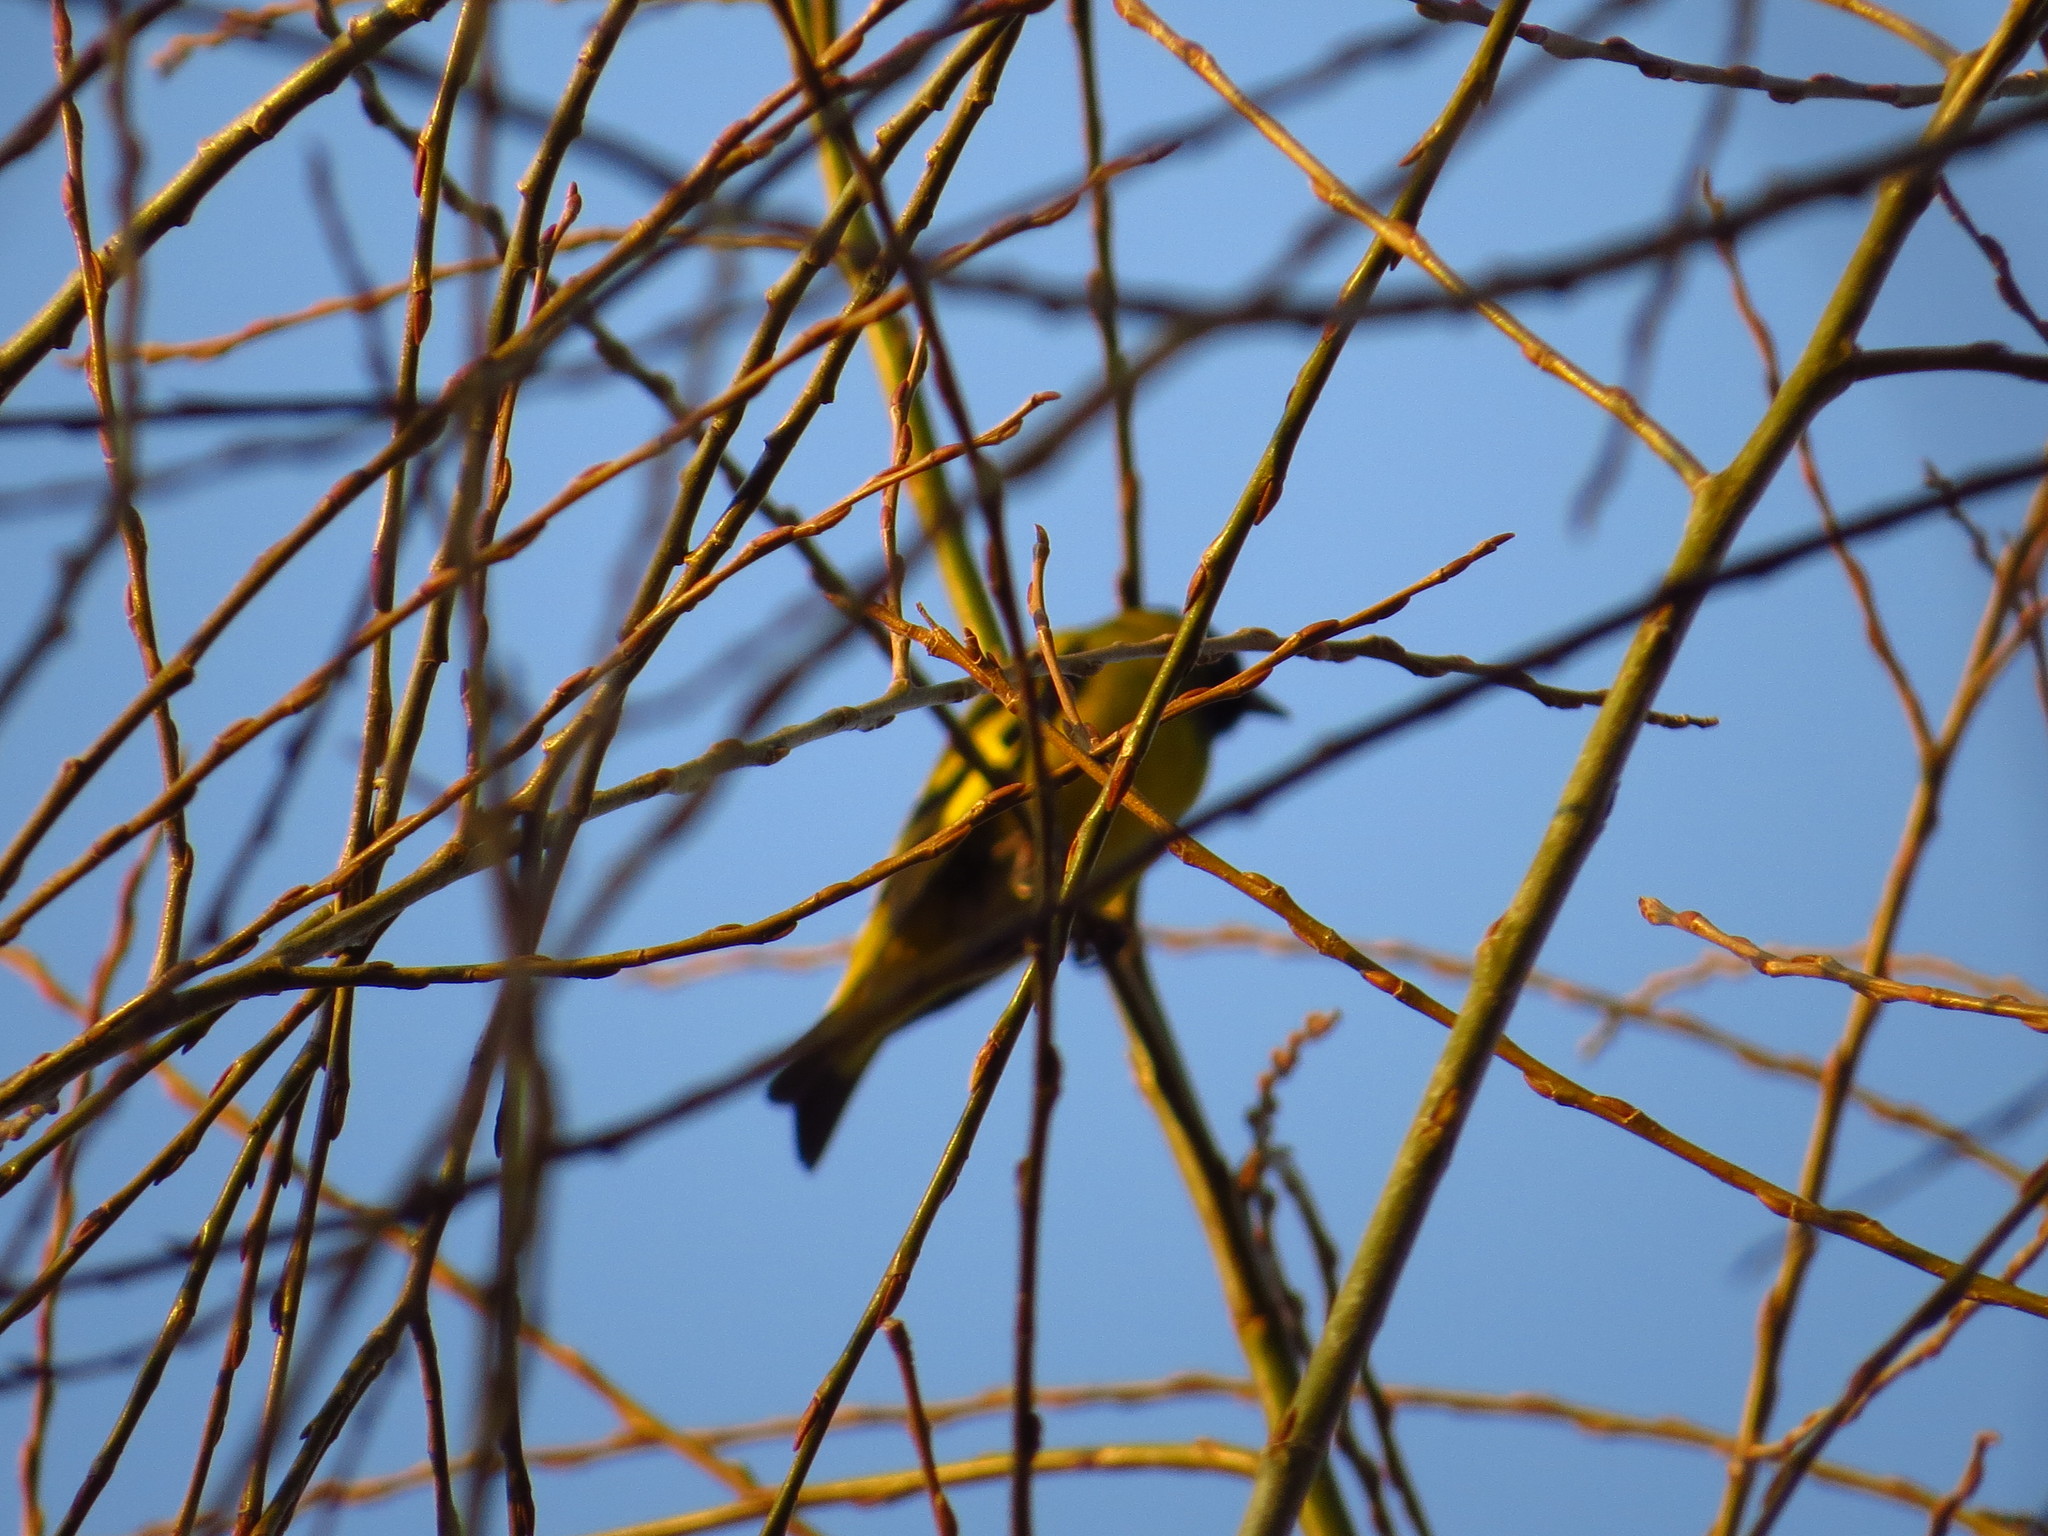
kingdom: Animalia
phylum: Chordata
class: Aves
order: Passeriformes
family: Fringillidae
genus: Spinus
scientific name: Spinus magellanicus
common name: Hooded siskin
